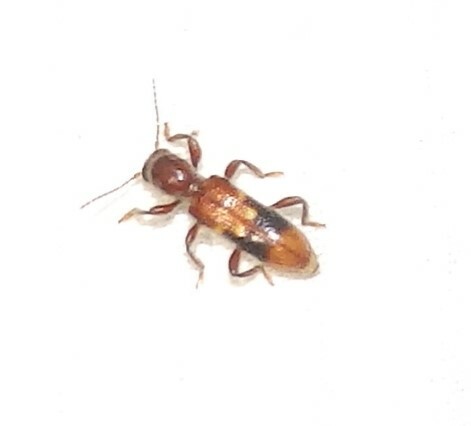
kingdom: Animalia
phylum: Arthropoda
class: Insecta
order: Coleoptera
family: Cleridae
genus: Priocera
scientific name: Priocera castanea
